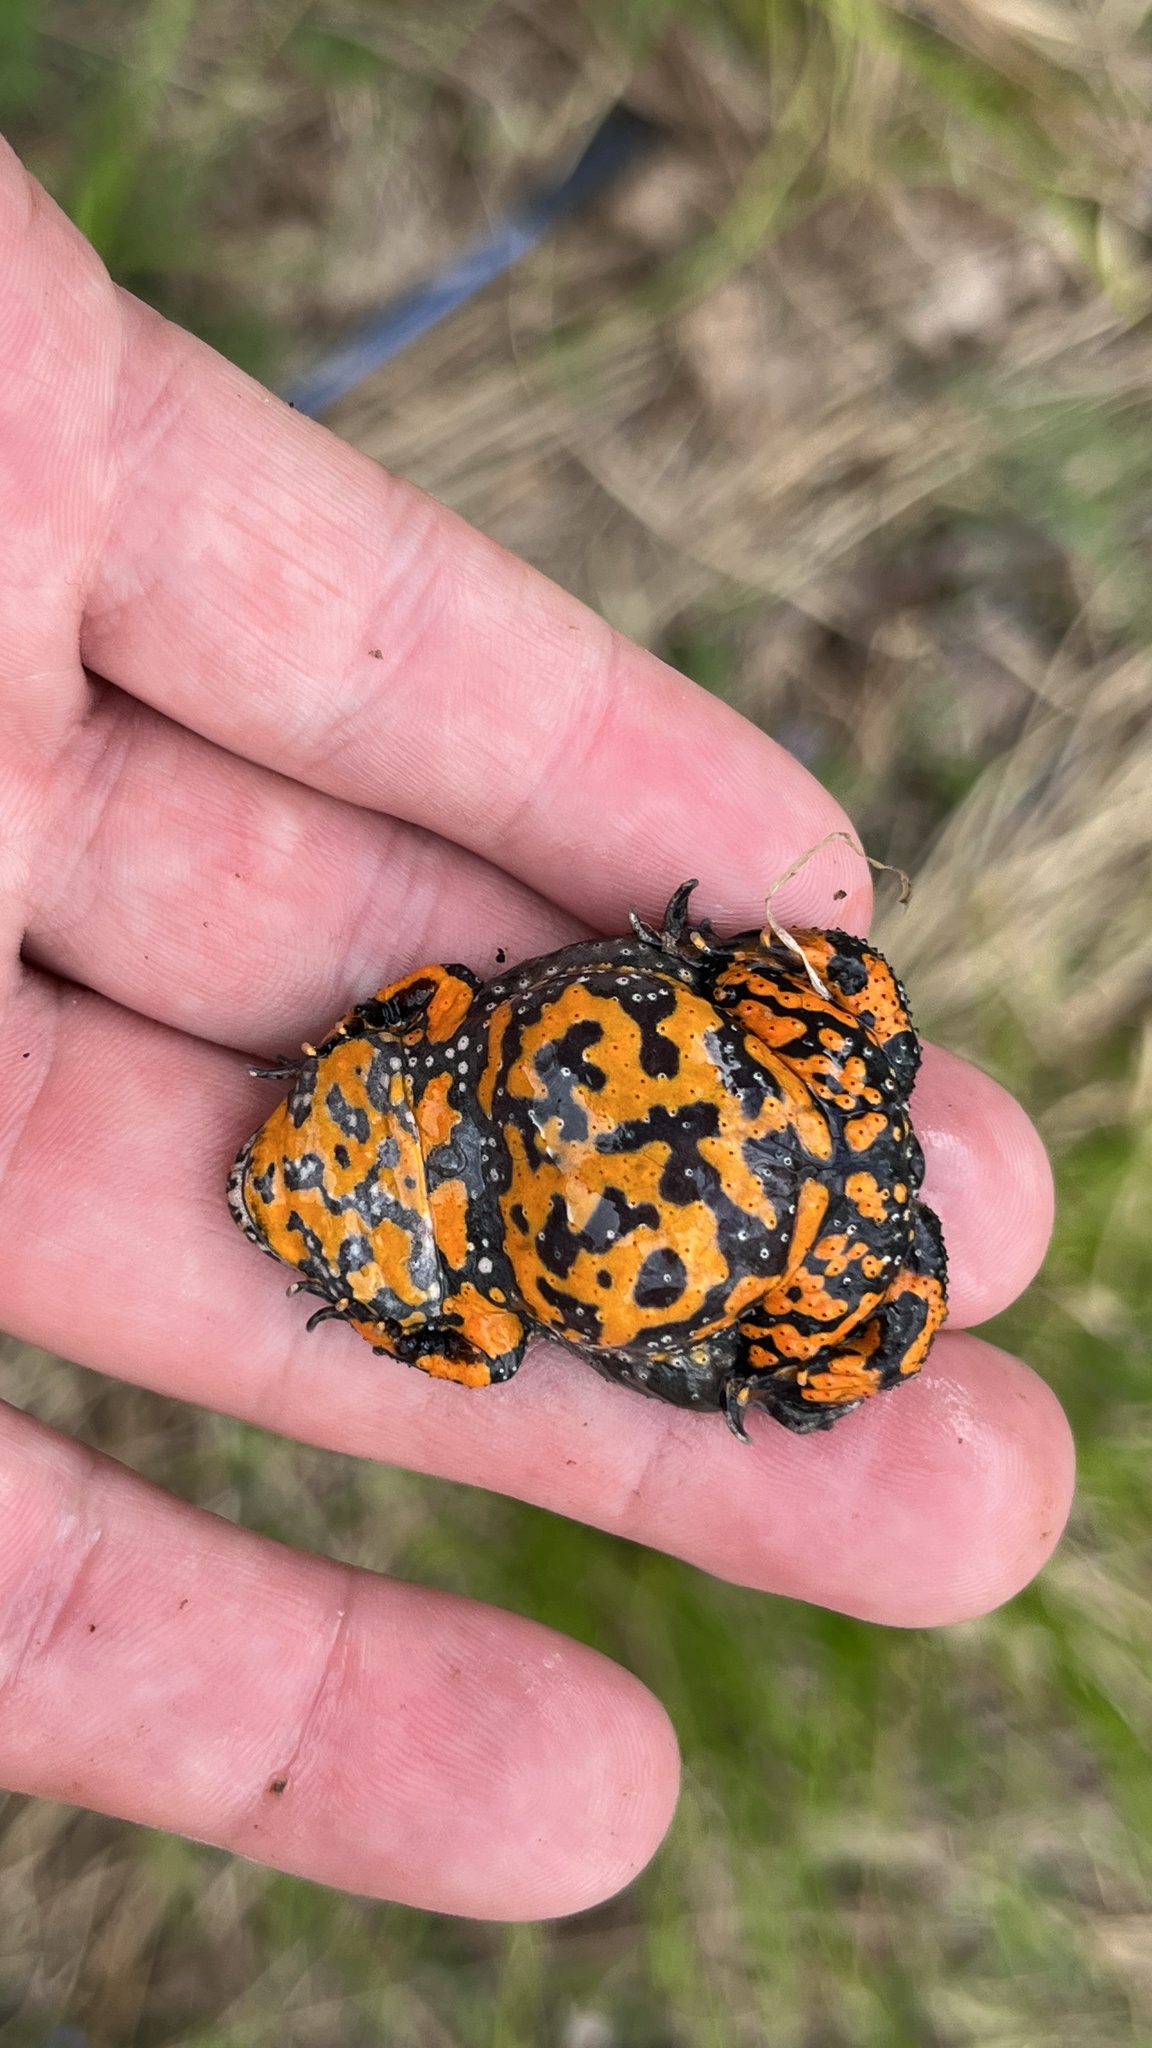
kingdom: Animalia
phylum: Chordata
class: Amphibia
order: Anura
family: Bombinatoridae
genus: Bombina
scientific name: Bombina bombina
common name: Fire-bellied toad
